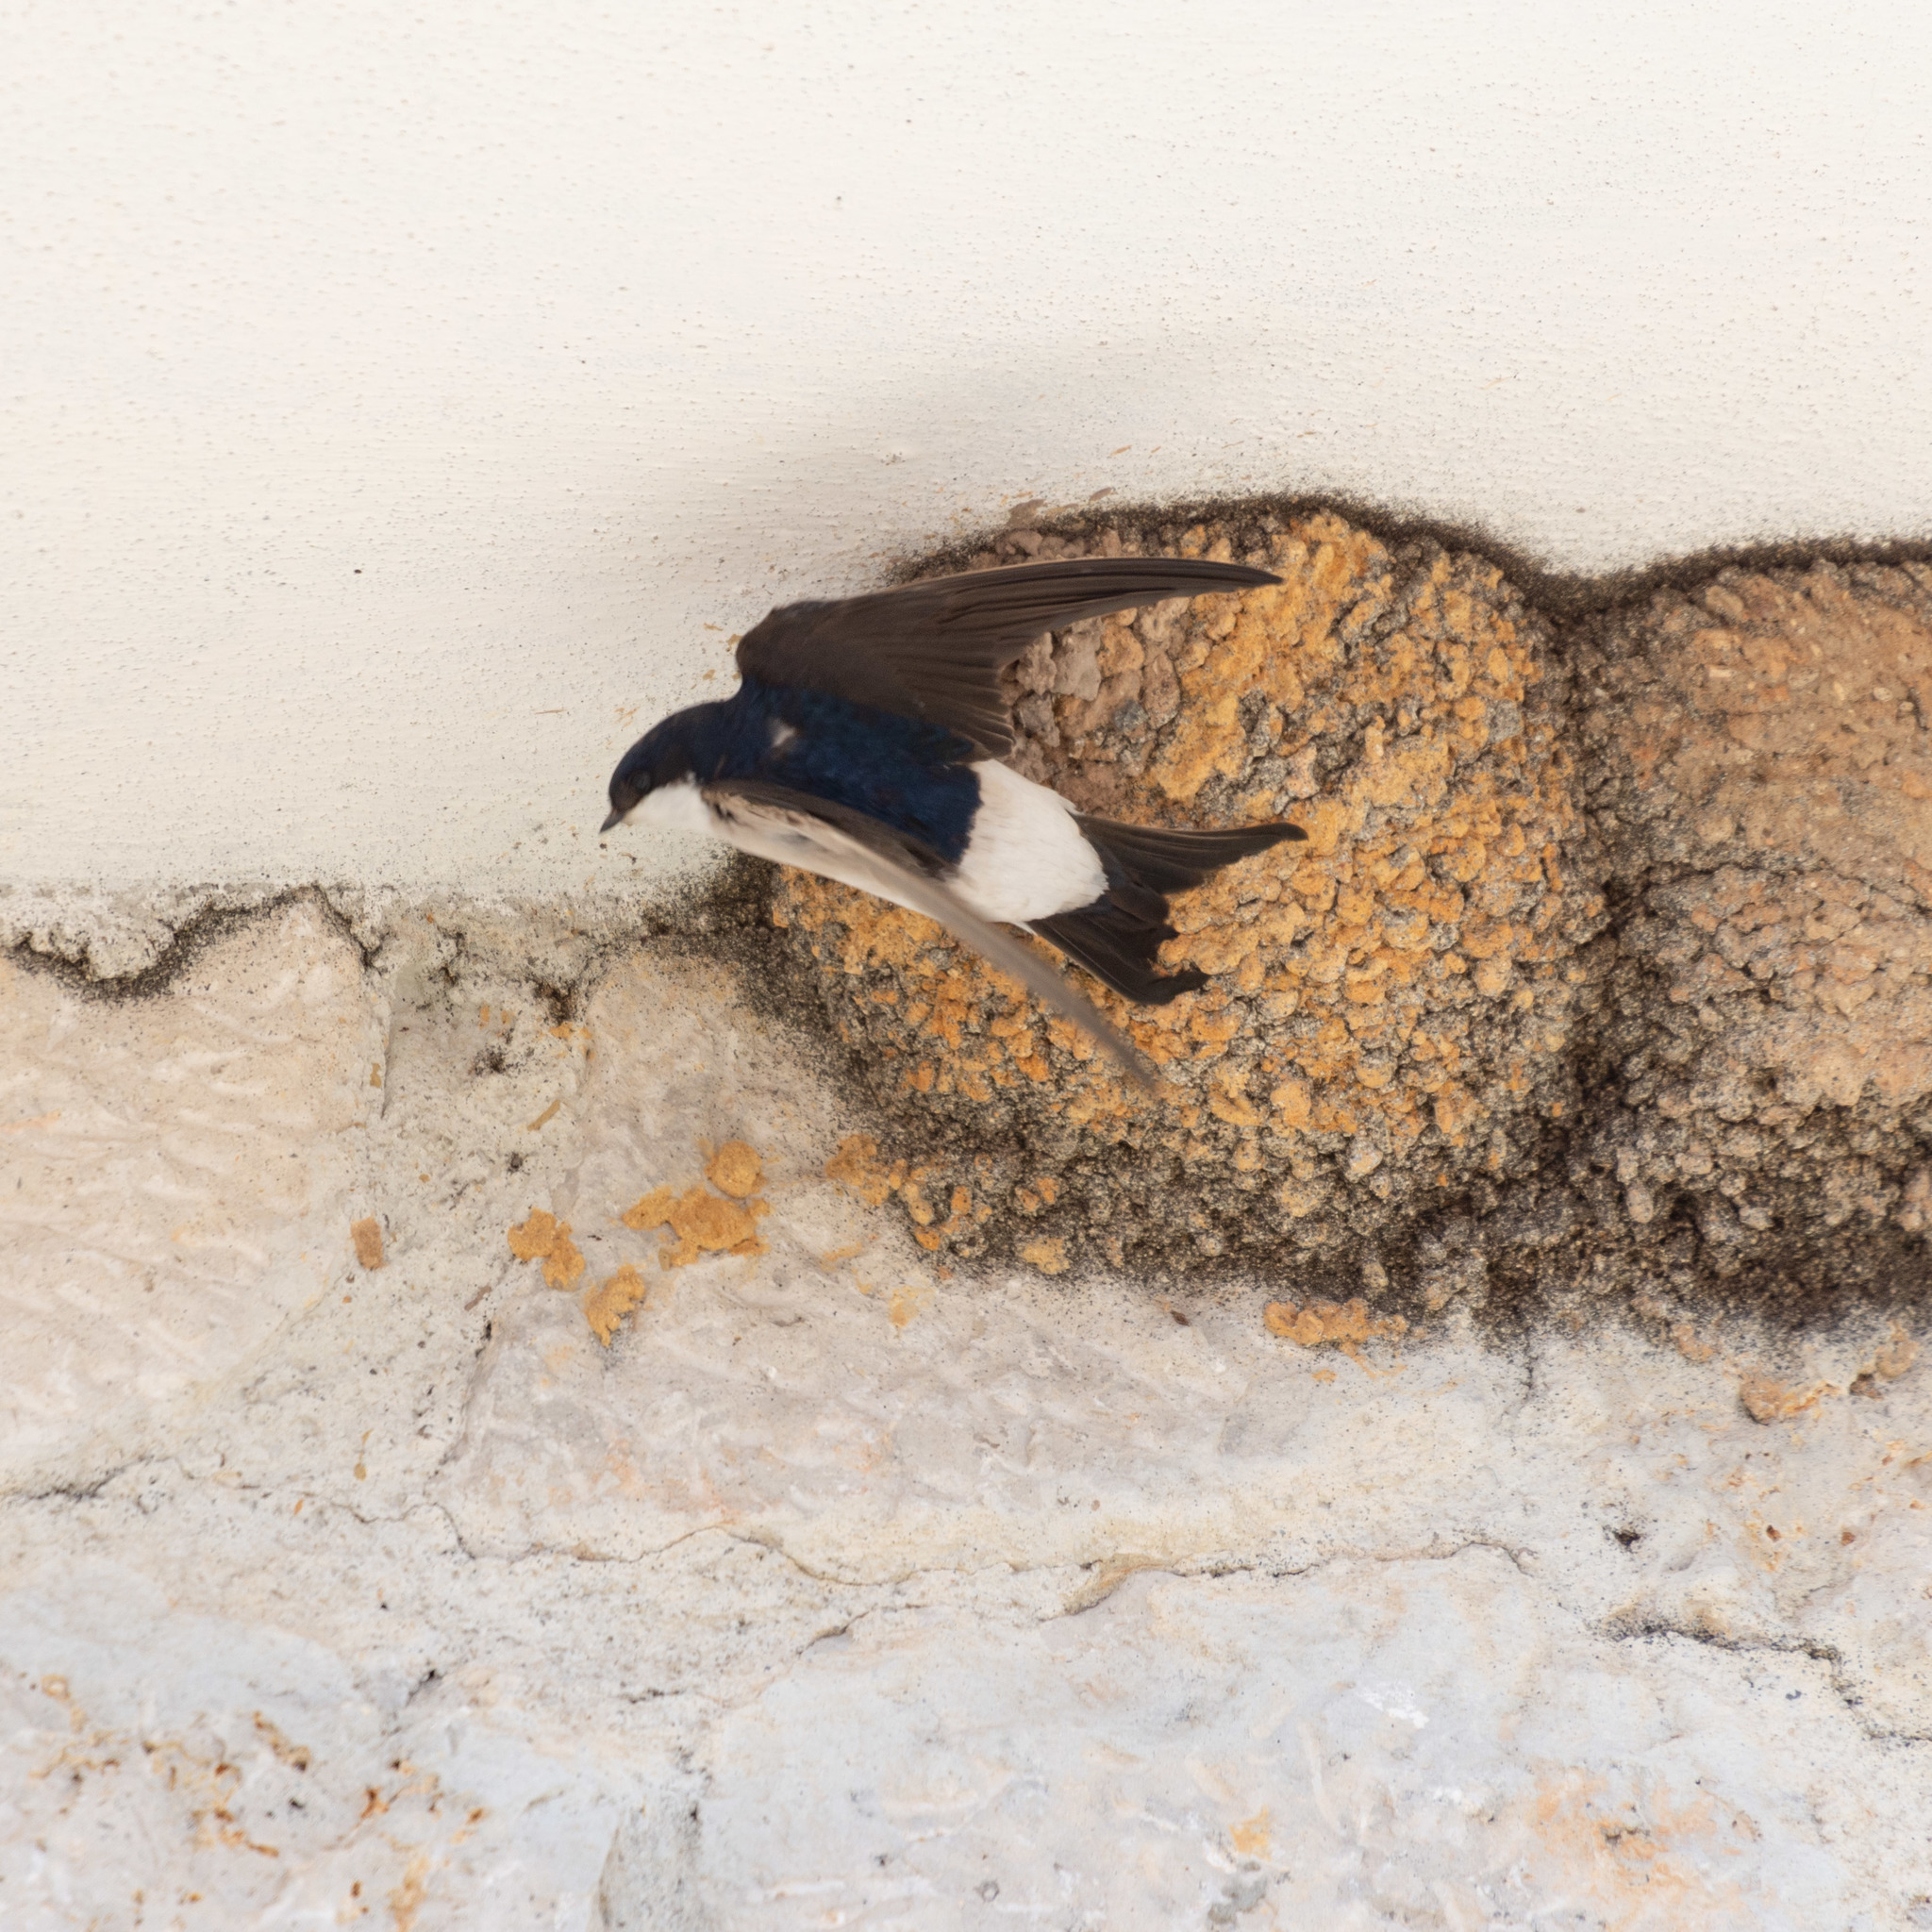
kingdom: Animalia
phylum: Chordata
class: Aves
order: Passeriformes
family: Hirundinidae
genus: Delichon
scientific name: Delichon urbicum
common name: Common house martin
